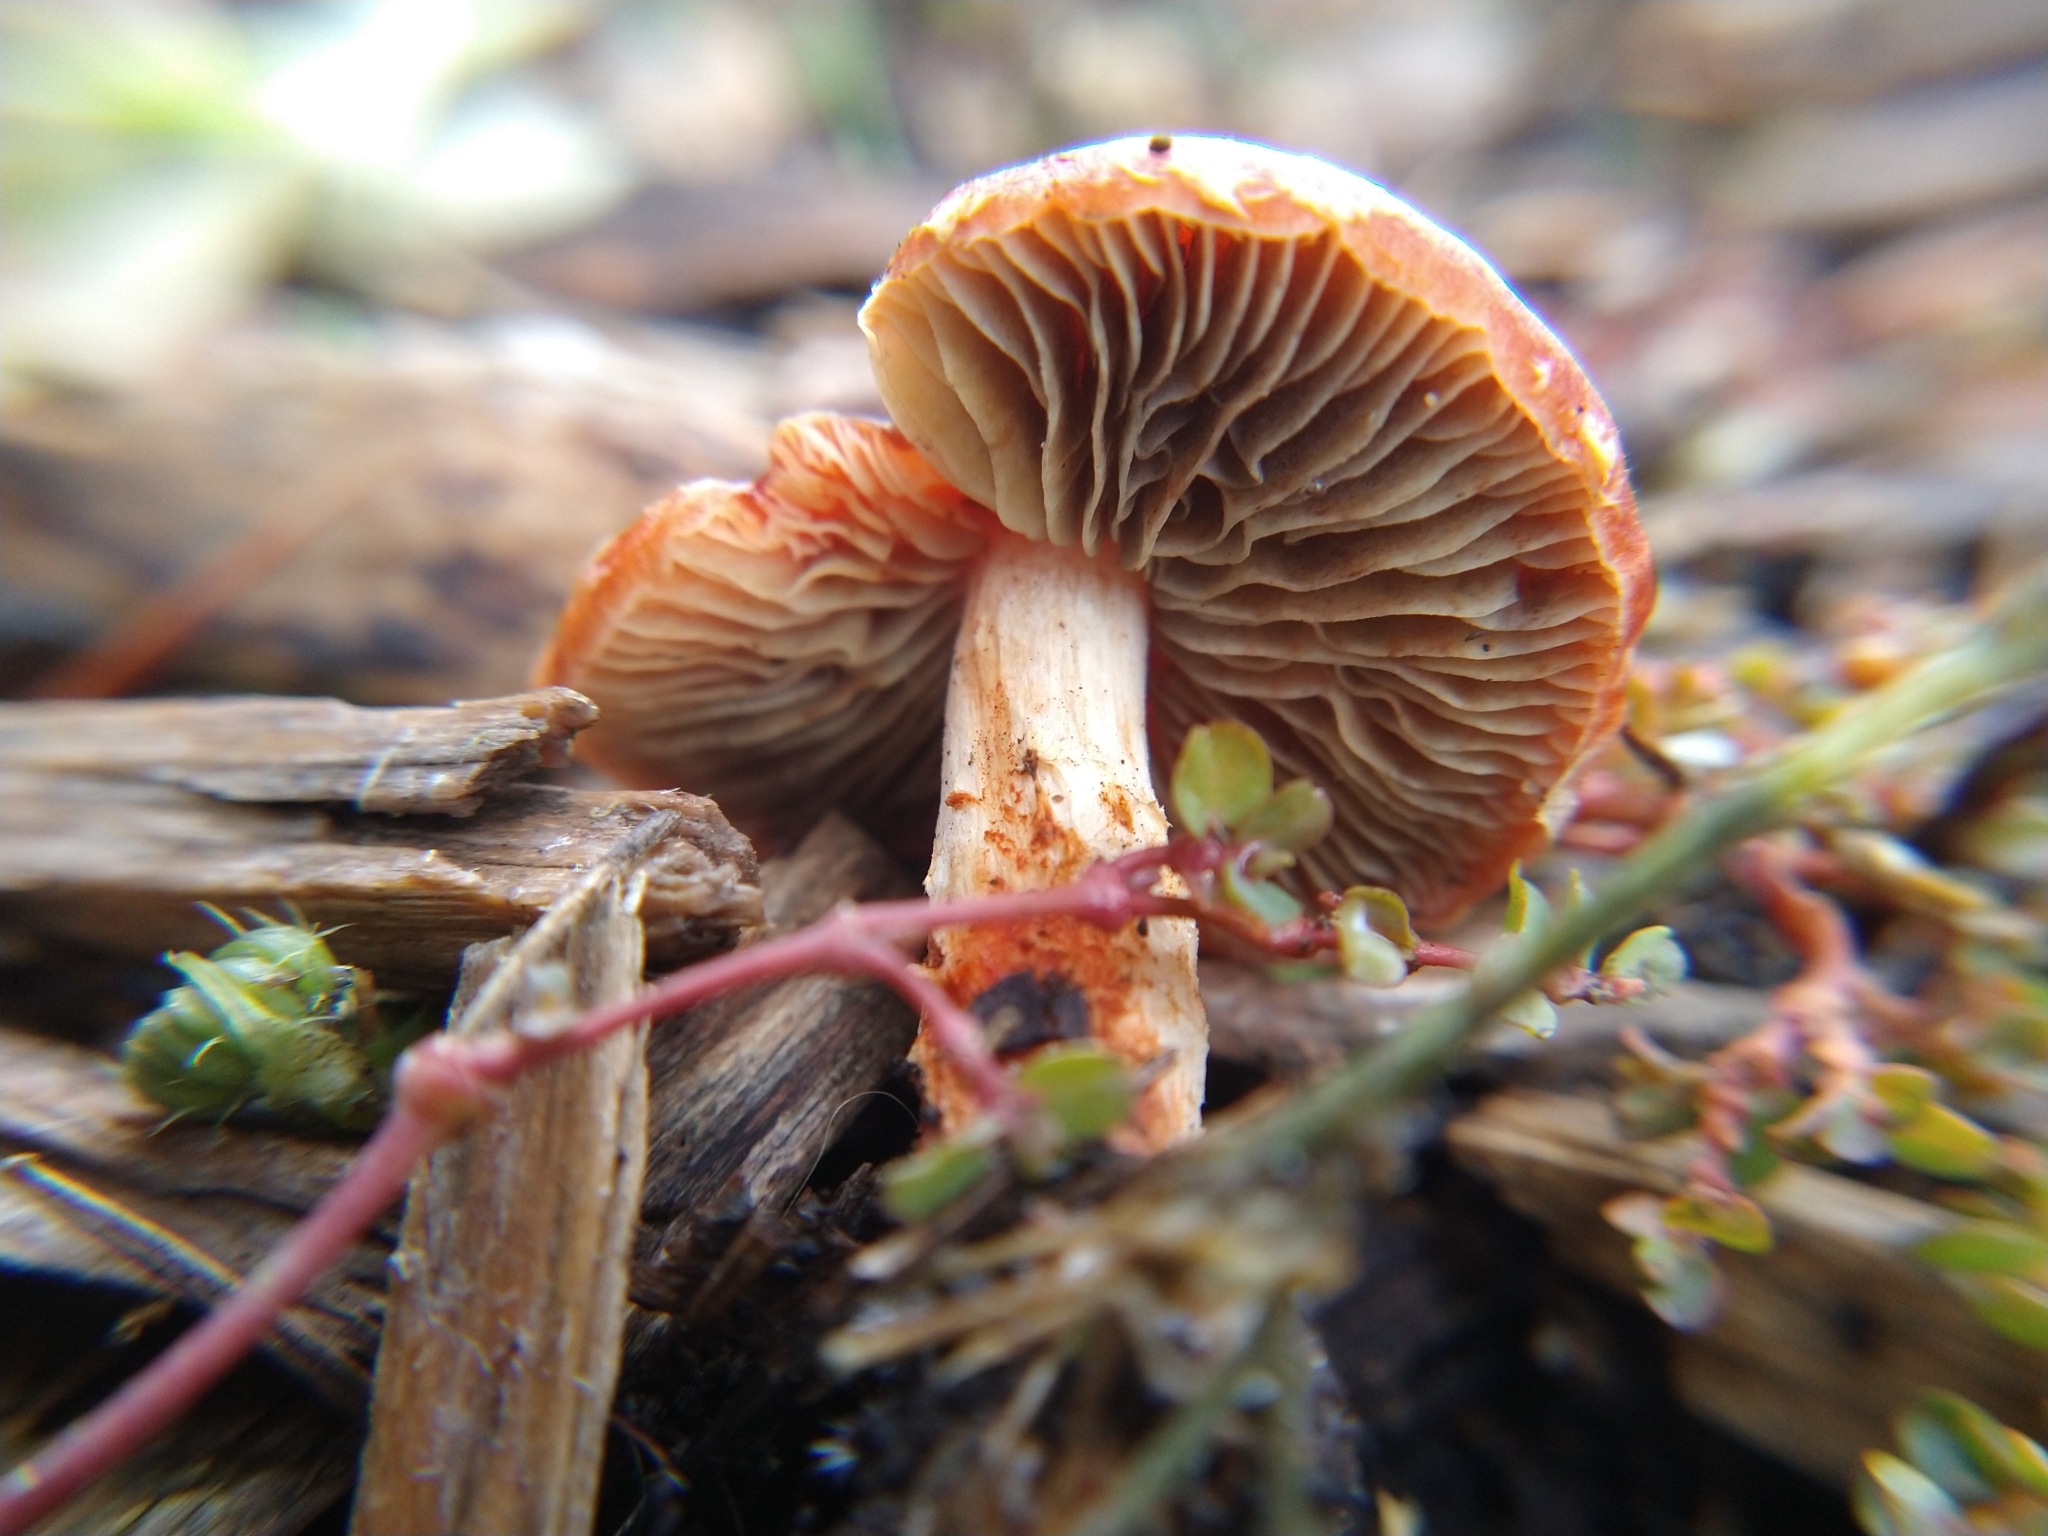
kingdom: Fungi
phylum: Basidiomycota
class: Agaricomycetes
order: Agaricales
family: Strophariaceae
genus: Leratiomyces
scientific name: Leratiomyces ceres
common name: Redlead roundhead
